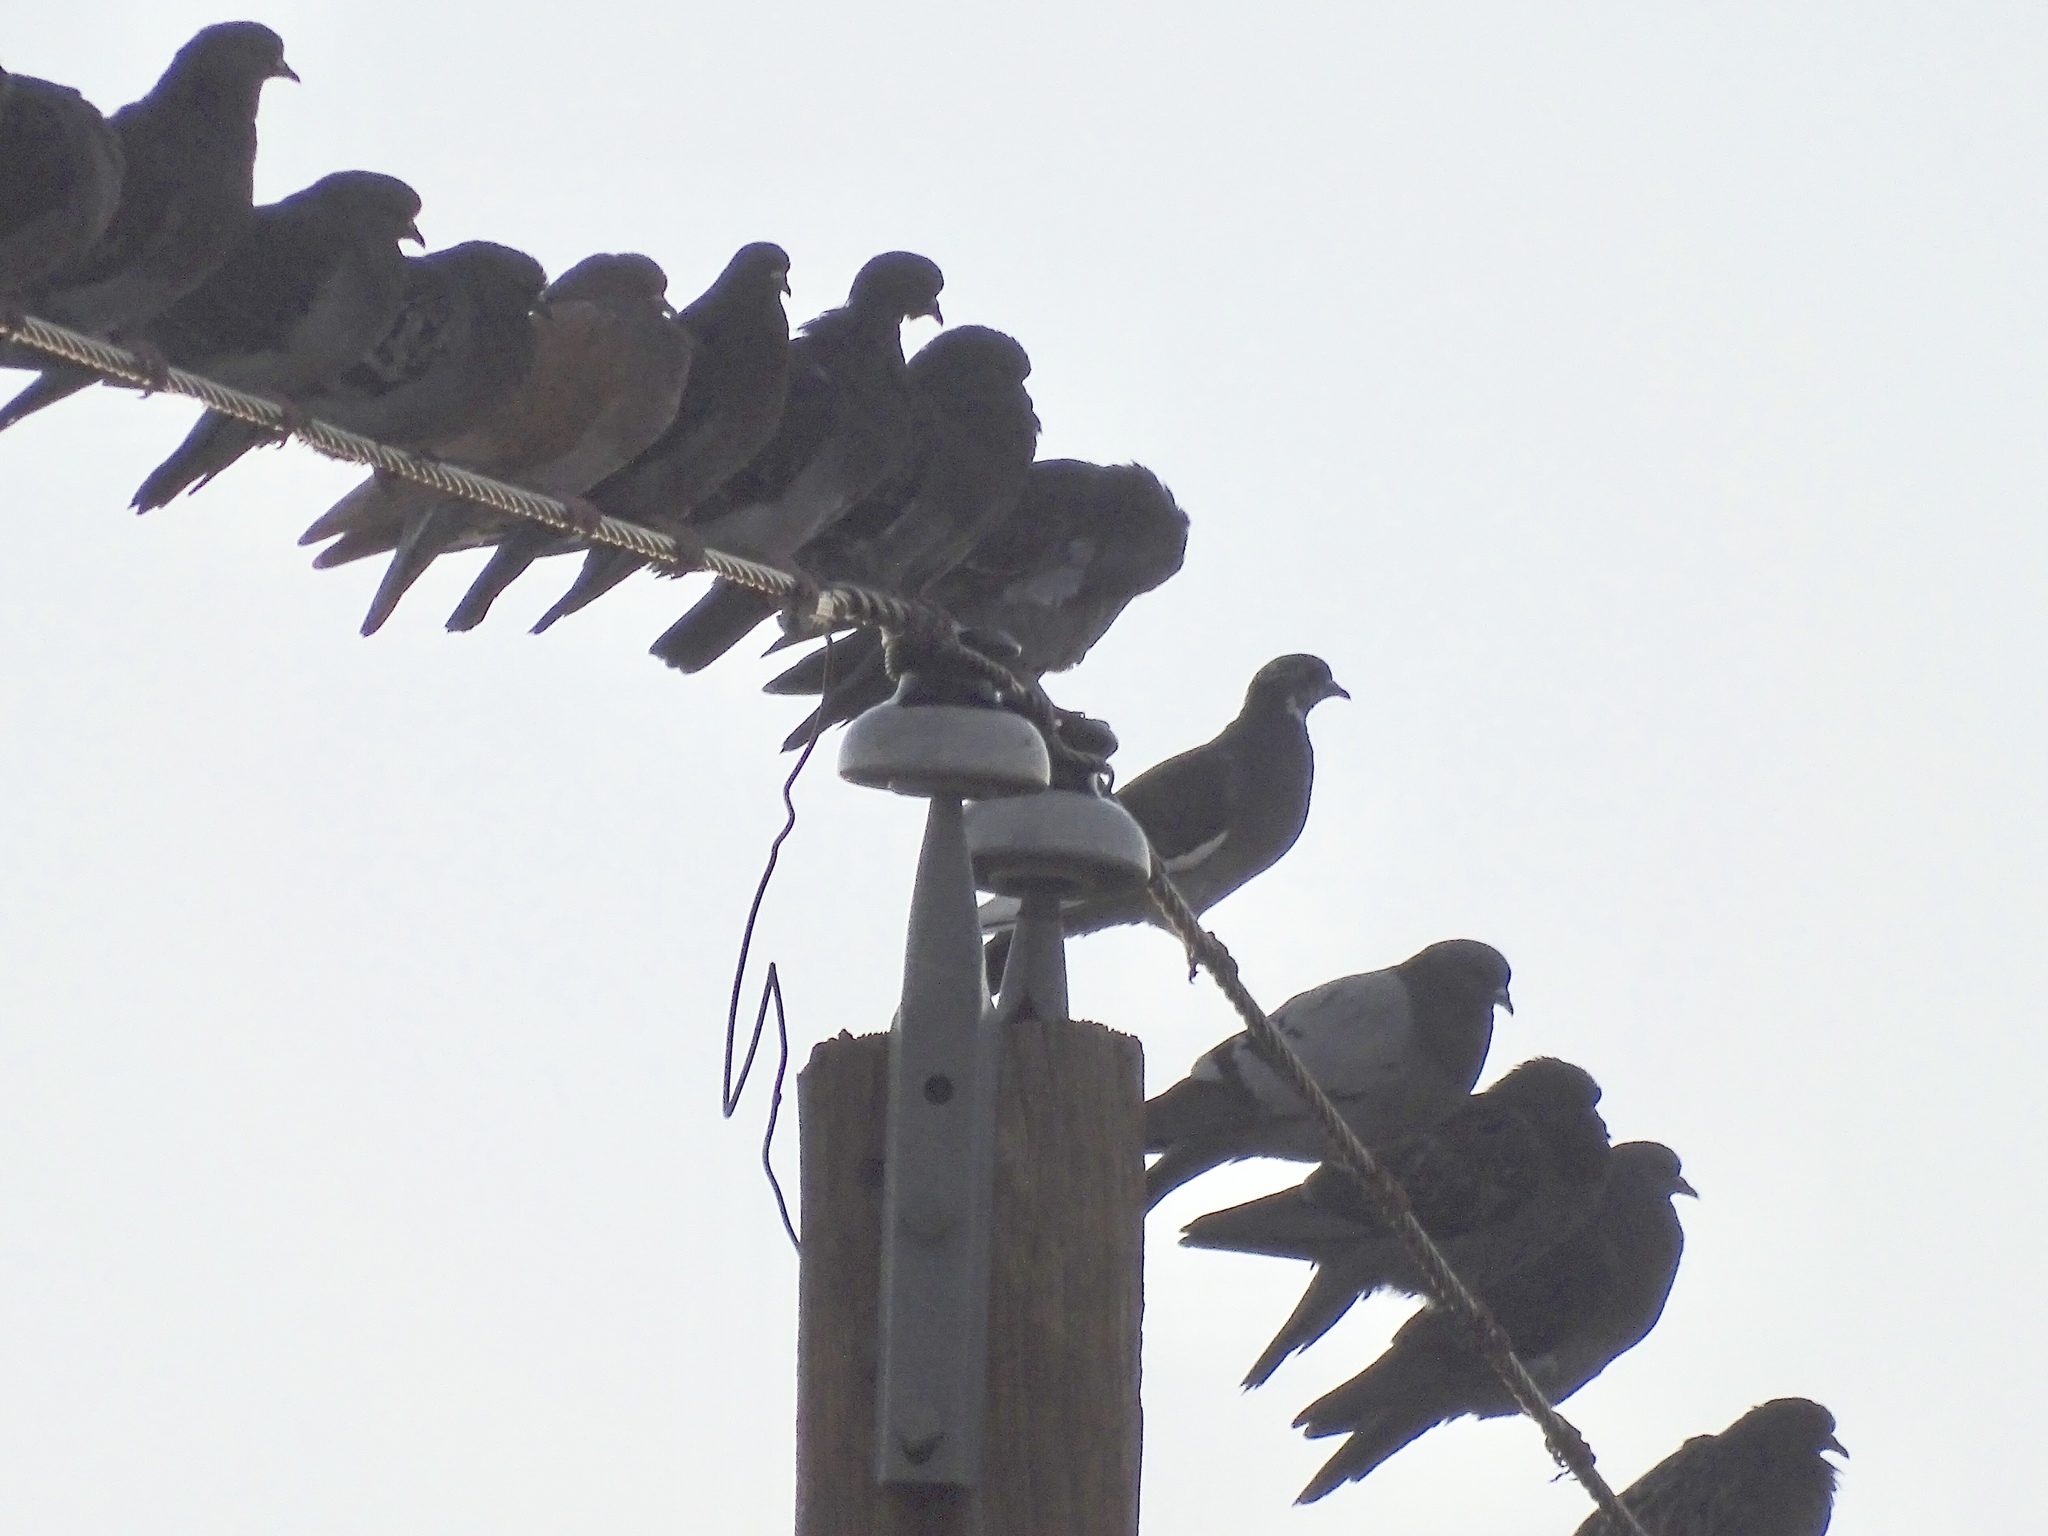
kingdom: Animalia
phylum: Chordata
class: Aves
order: Columbiformes
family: Columbidae
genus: Columba
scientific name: Columba livia
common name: Rock pigeon
